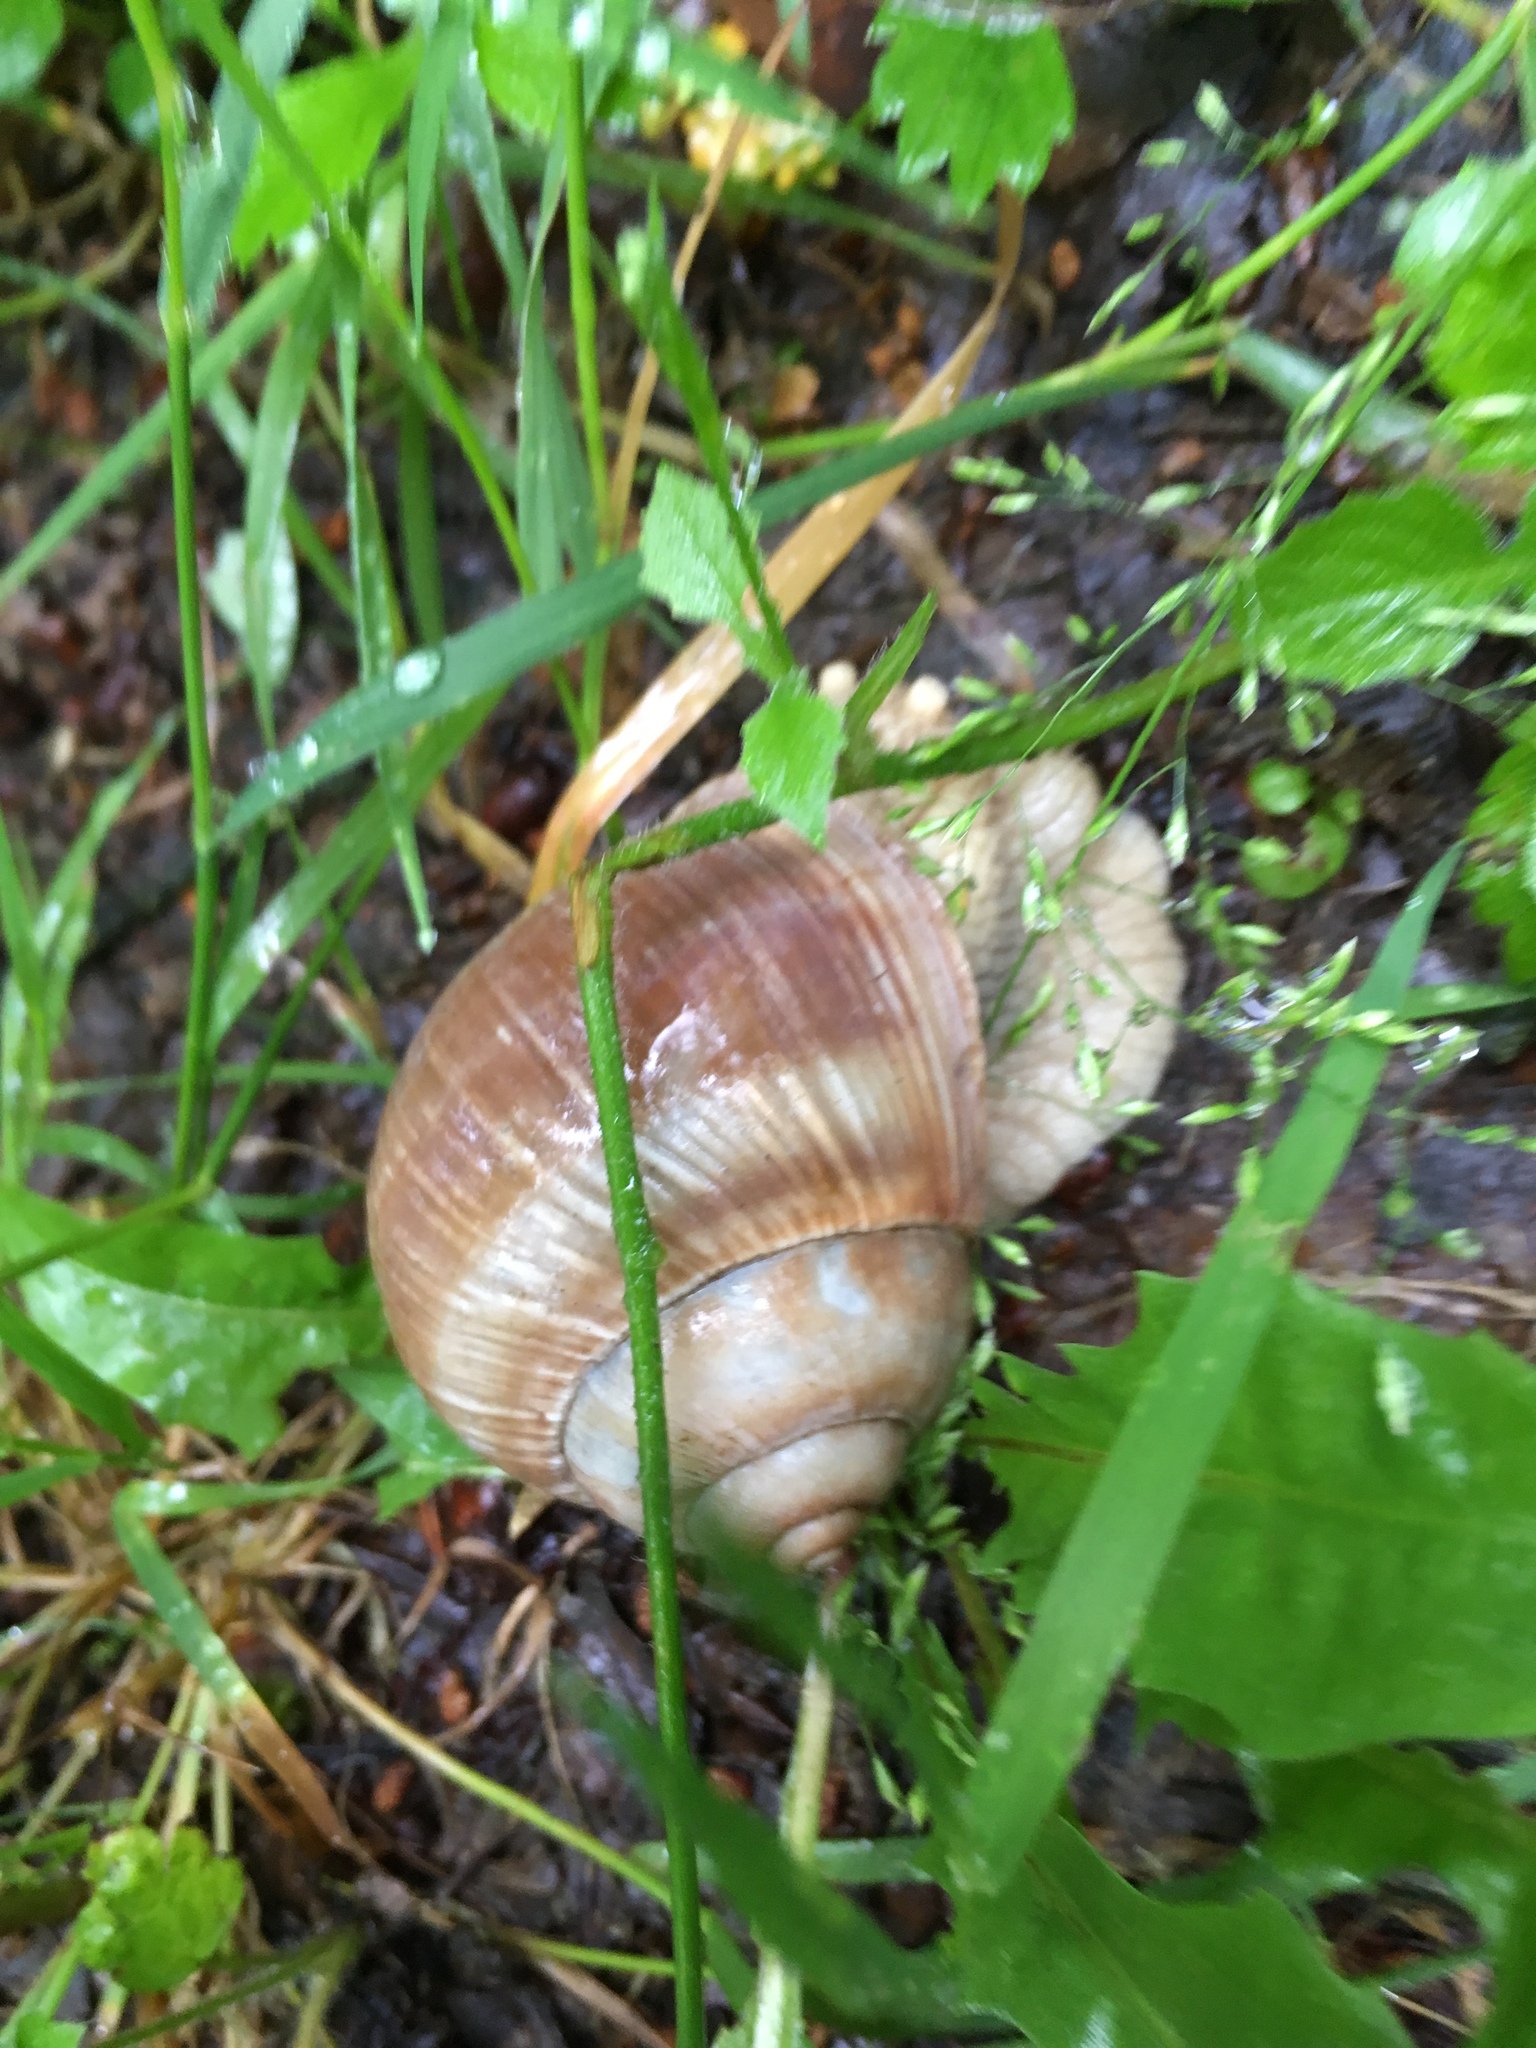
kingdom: Animalia
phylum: Mollusca
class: Gastropoda
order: Stylommatophora
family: Helicidae
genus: Helix
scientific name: Helix pomatia
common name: Roman snail
